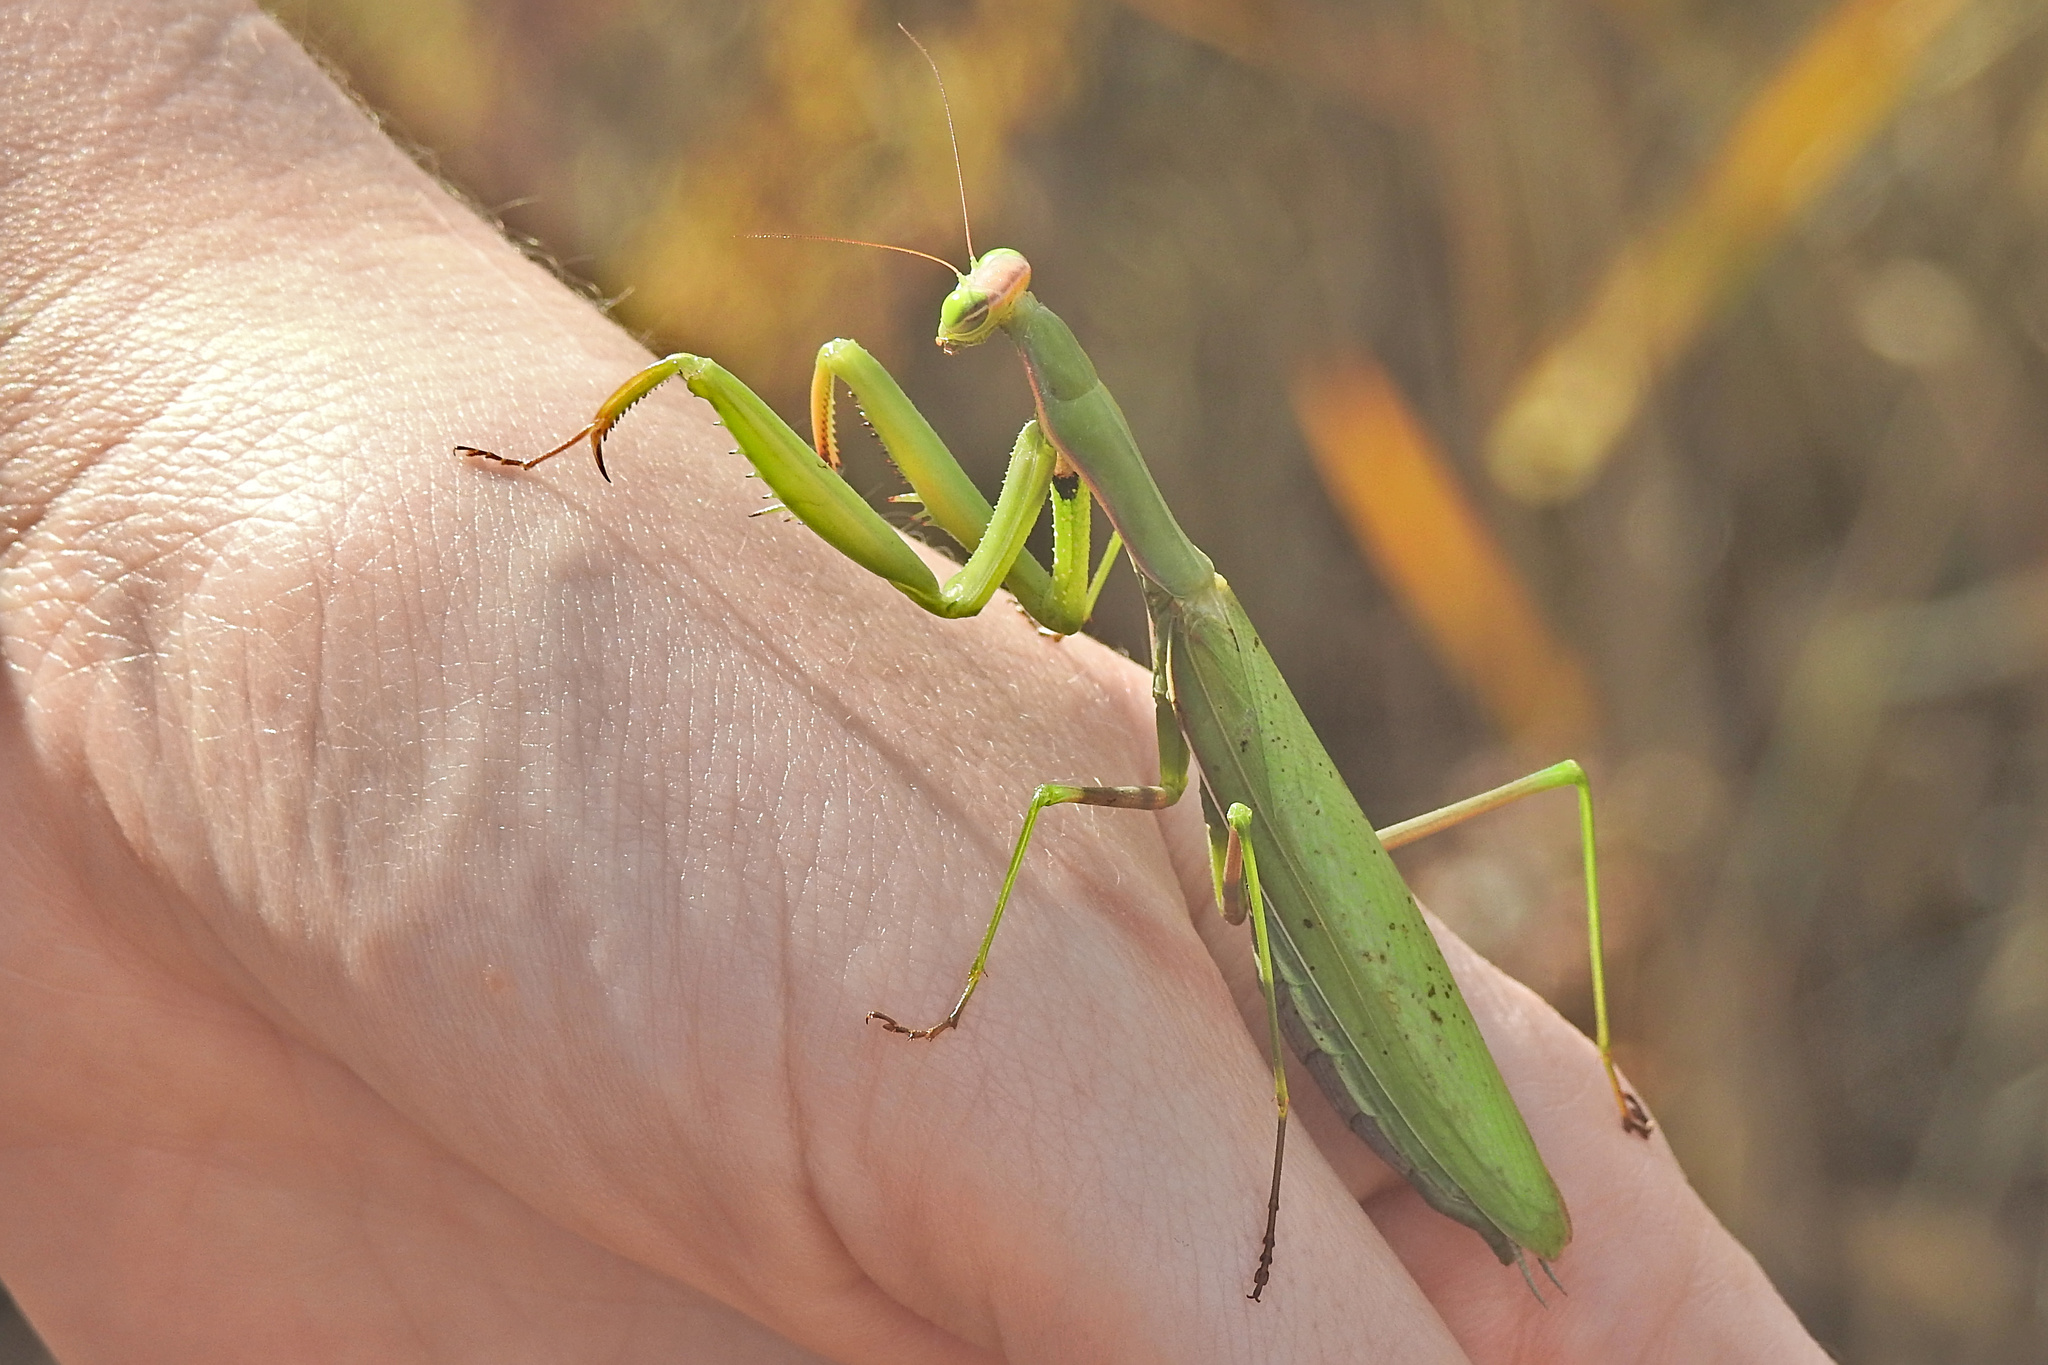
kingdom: Animalia
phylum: Arthropoda
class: Insecta
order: Mantodea
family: Mantidae
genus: Mantis
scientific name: Mantis religiosa
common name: Praying mantis
